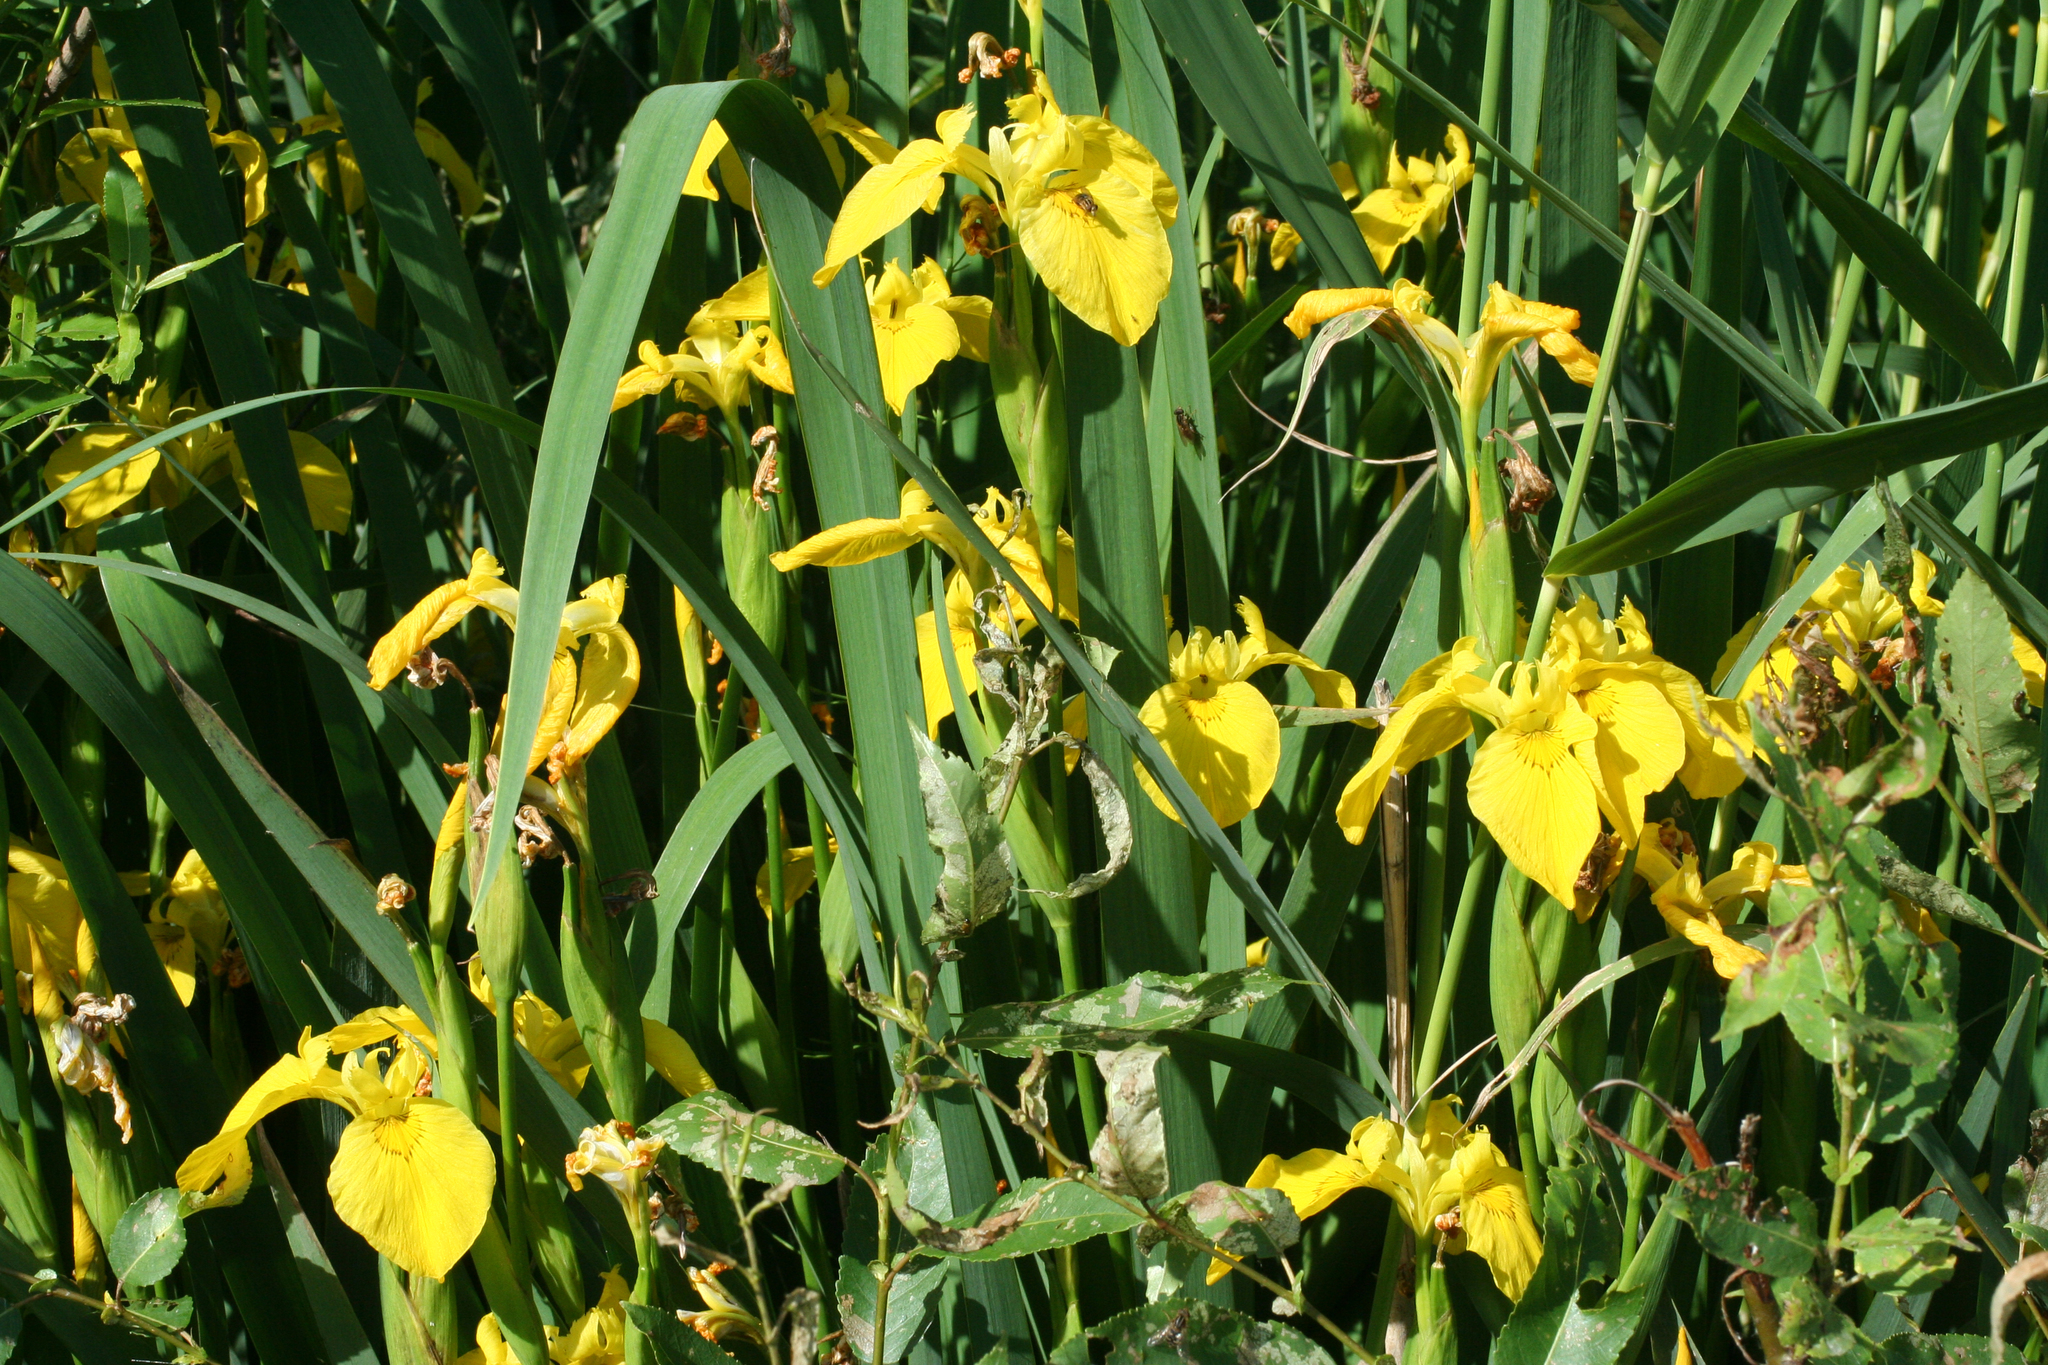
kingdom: Plantae
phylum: Tracheophyta
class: Liliopsida
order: Asparagales
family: Iridaceae
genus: Iris
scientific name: Iris pseudacorus
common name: Yellow flag
